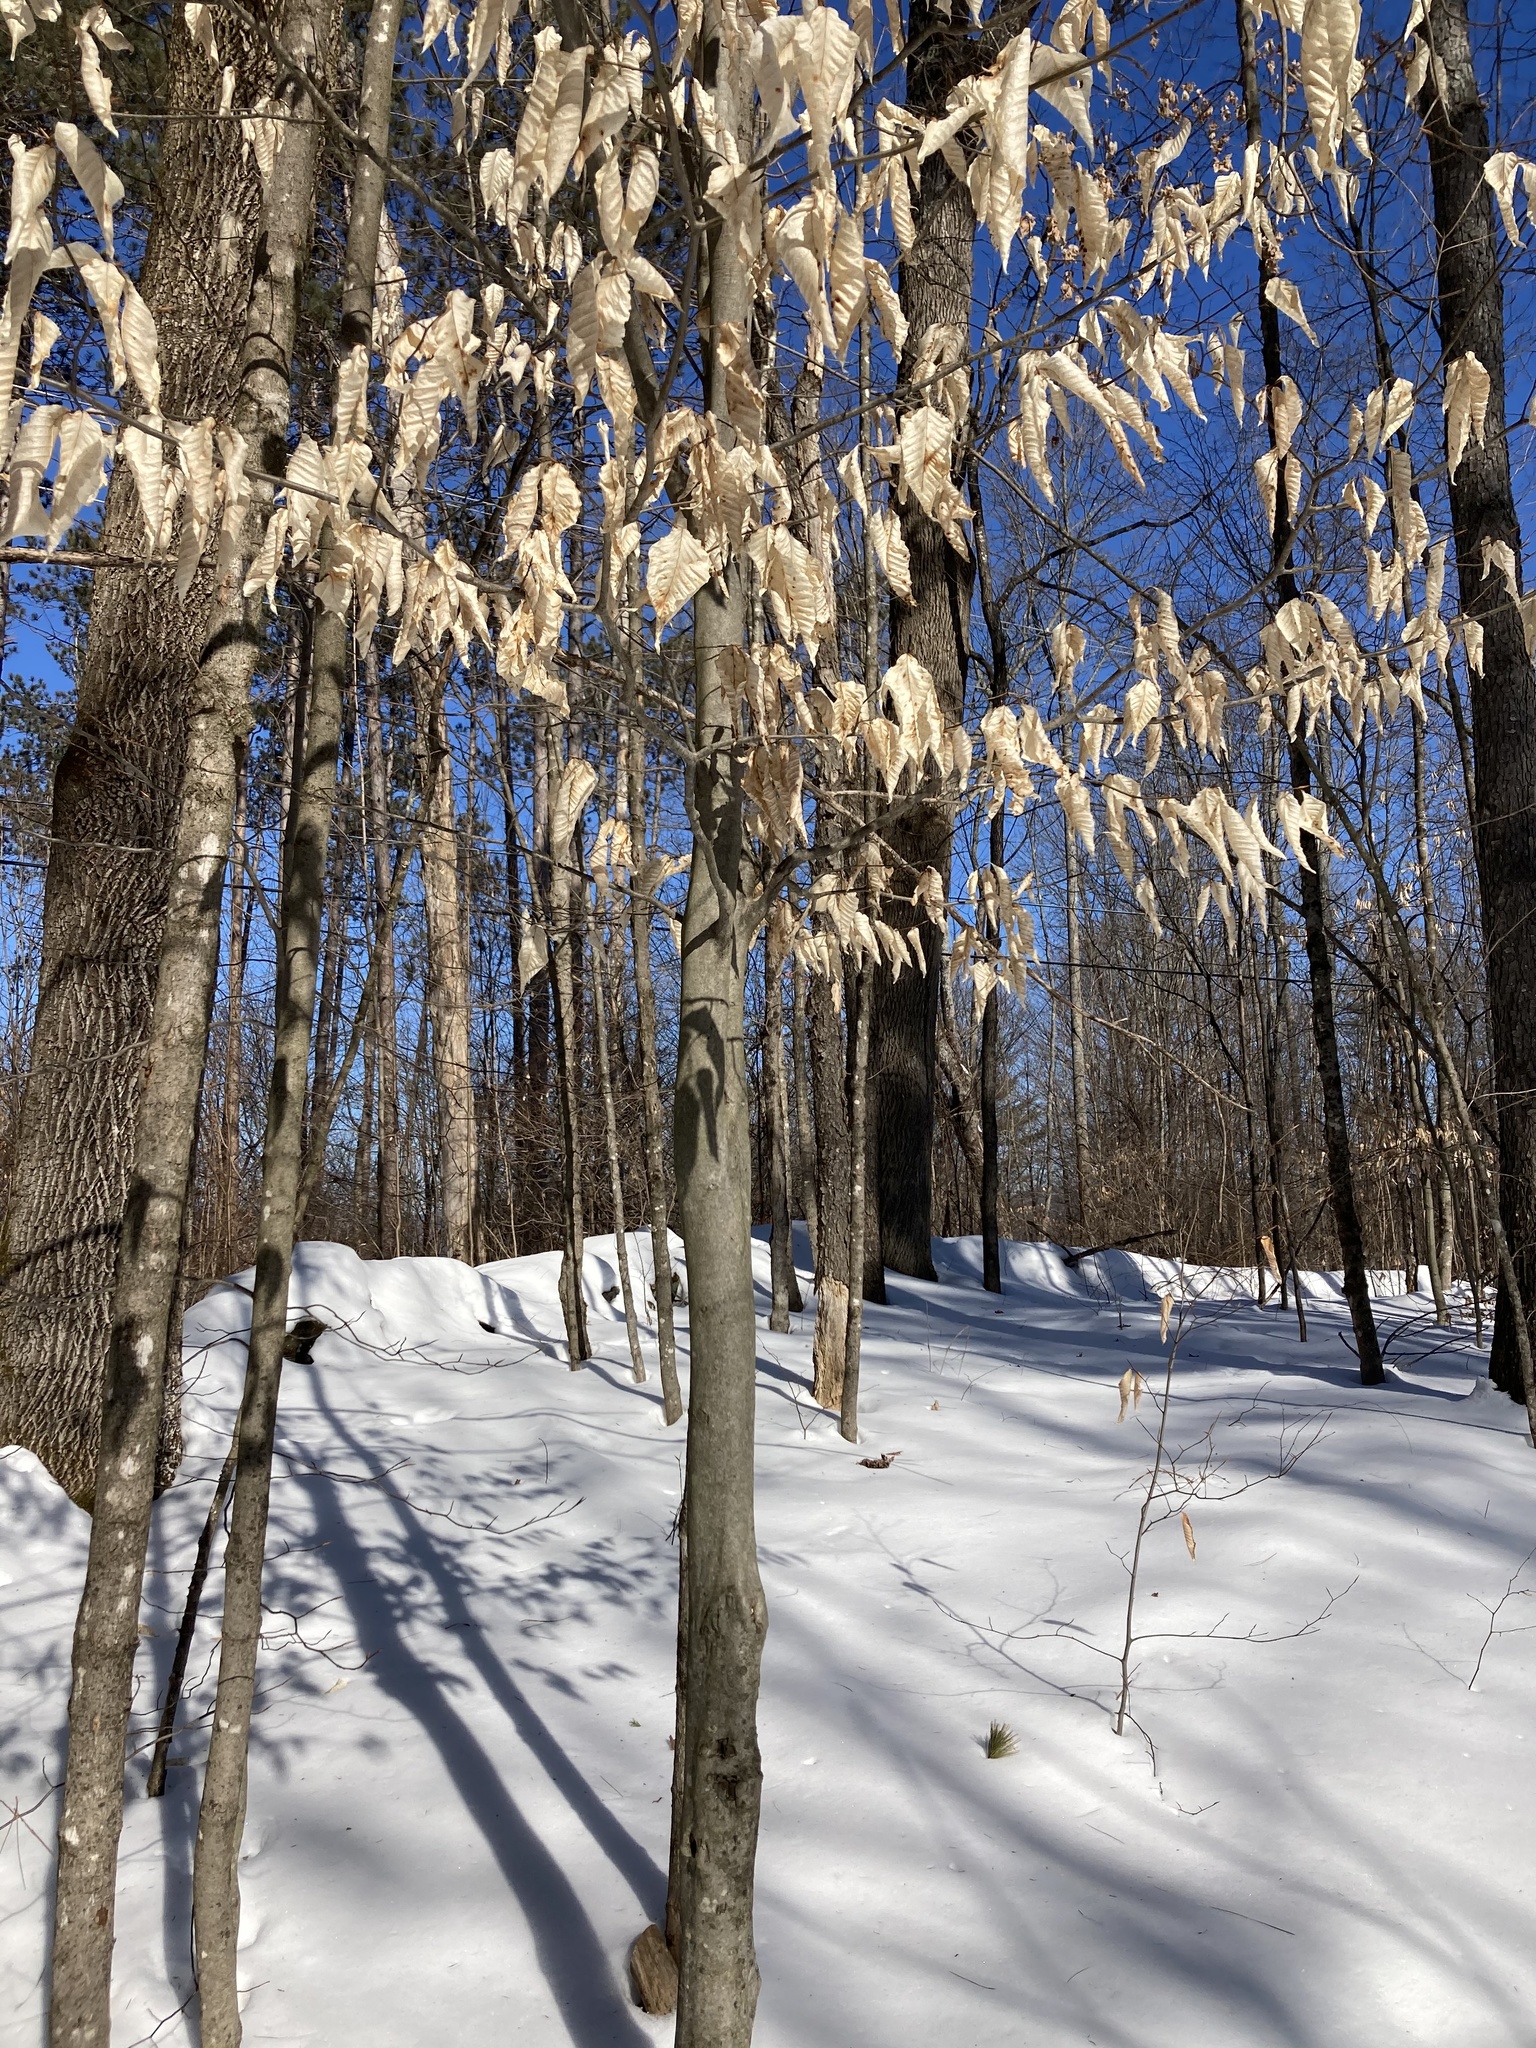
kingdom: Plantae
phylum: Tracheophyta
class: Magnoliopsida
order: Fagales
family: Fagaceae
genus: Fagus
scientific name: Fagus grandifolia
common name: American beech
